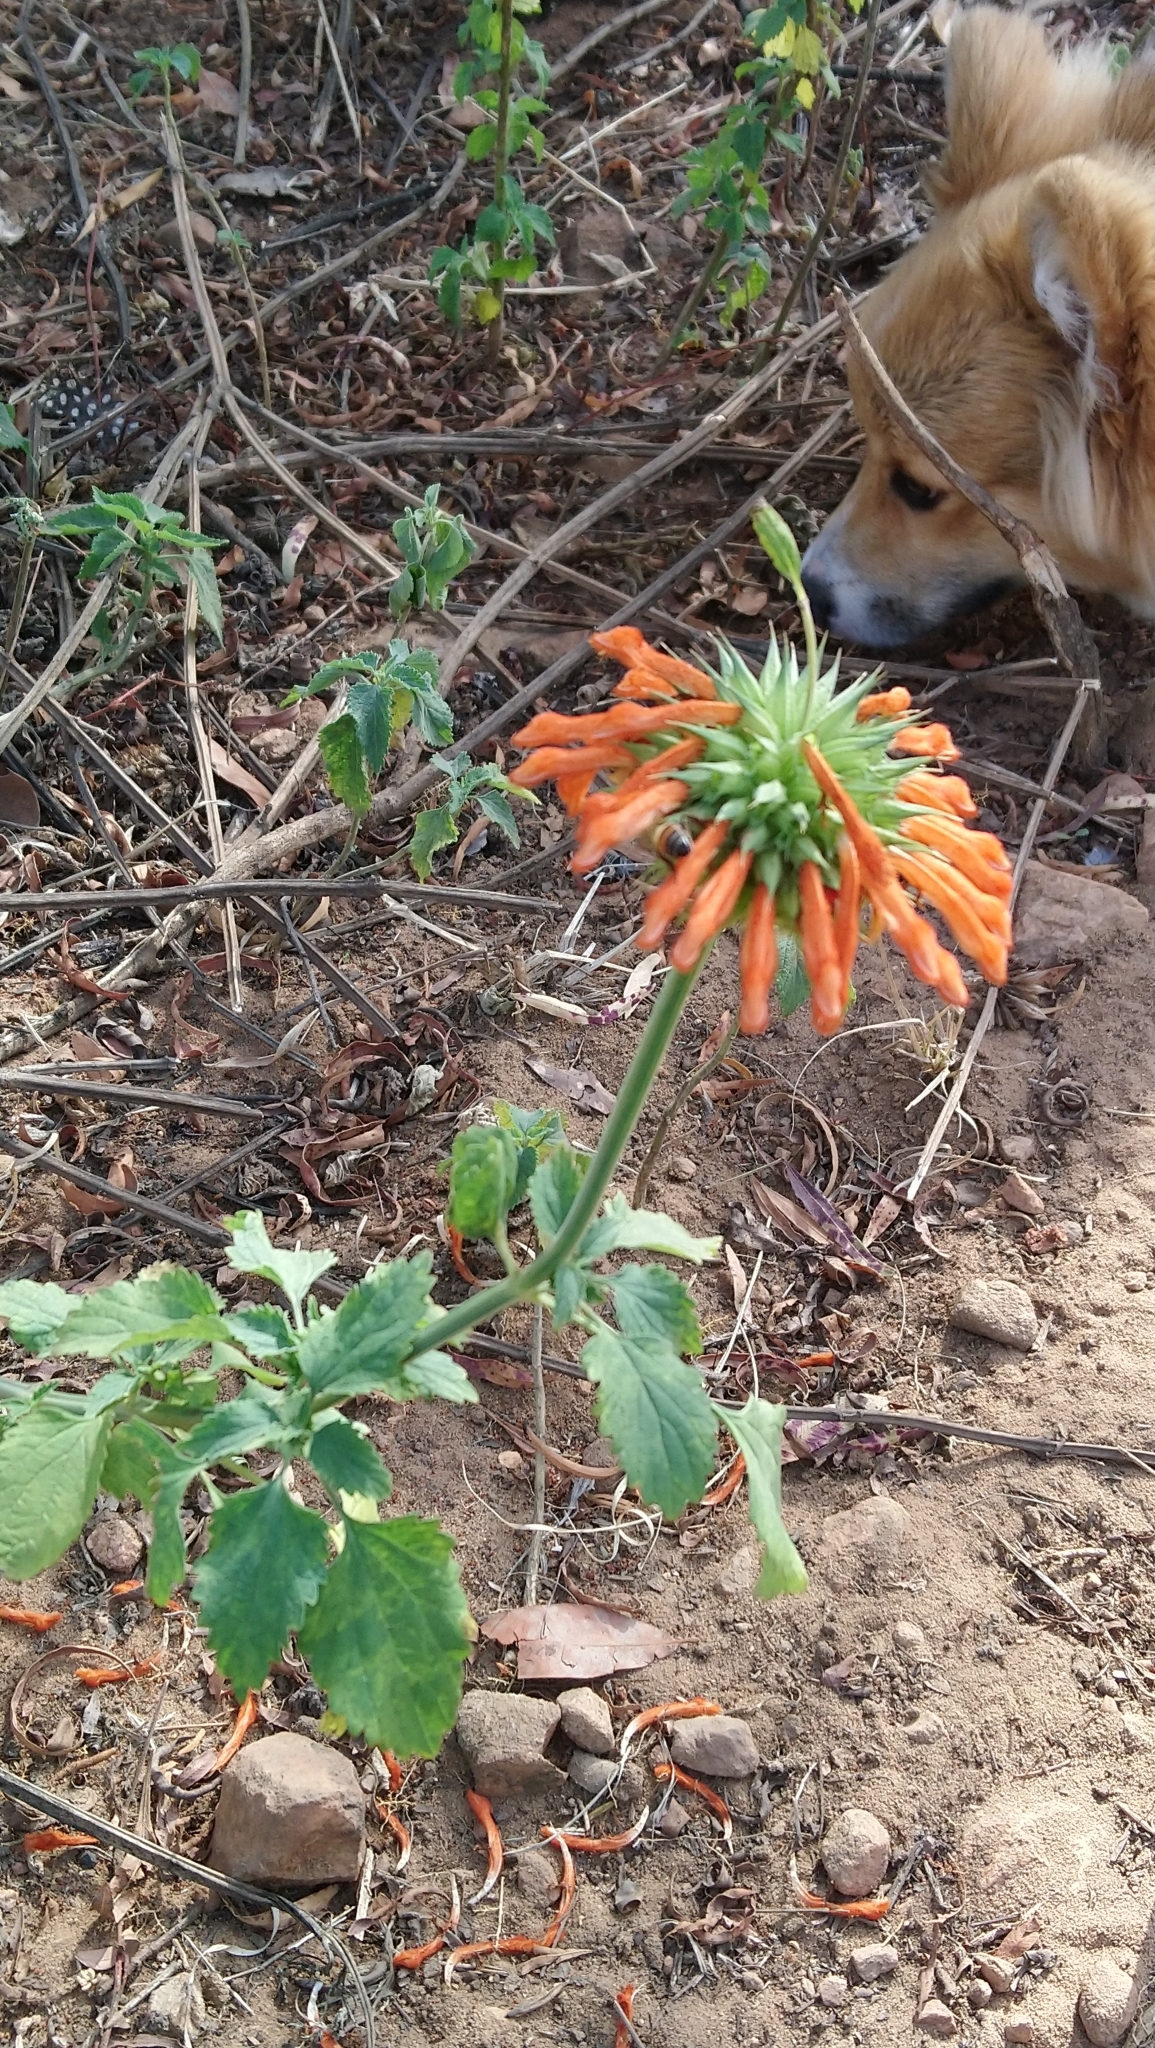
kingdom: Plantae
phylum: Tracheophyta
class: Magnoliopsida
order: Lamiales
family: Lamiaceae
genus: Leonotis
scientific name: Leonotis nepetifolia
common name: Christmas candlestick
